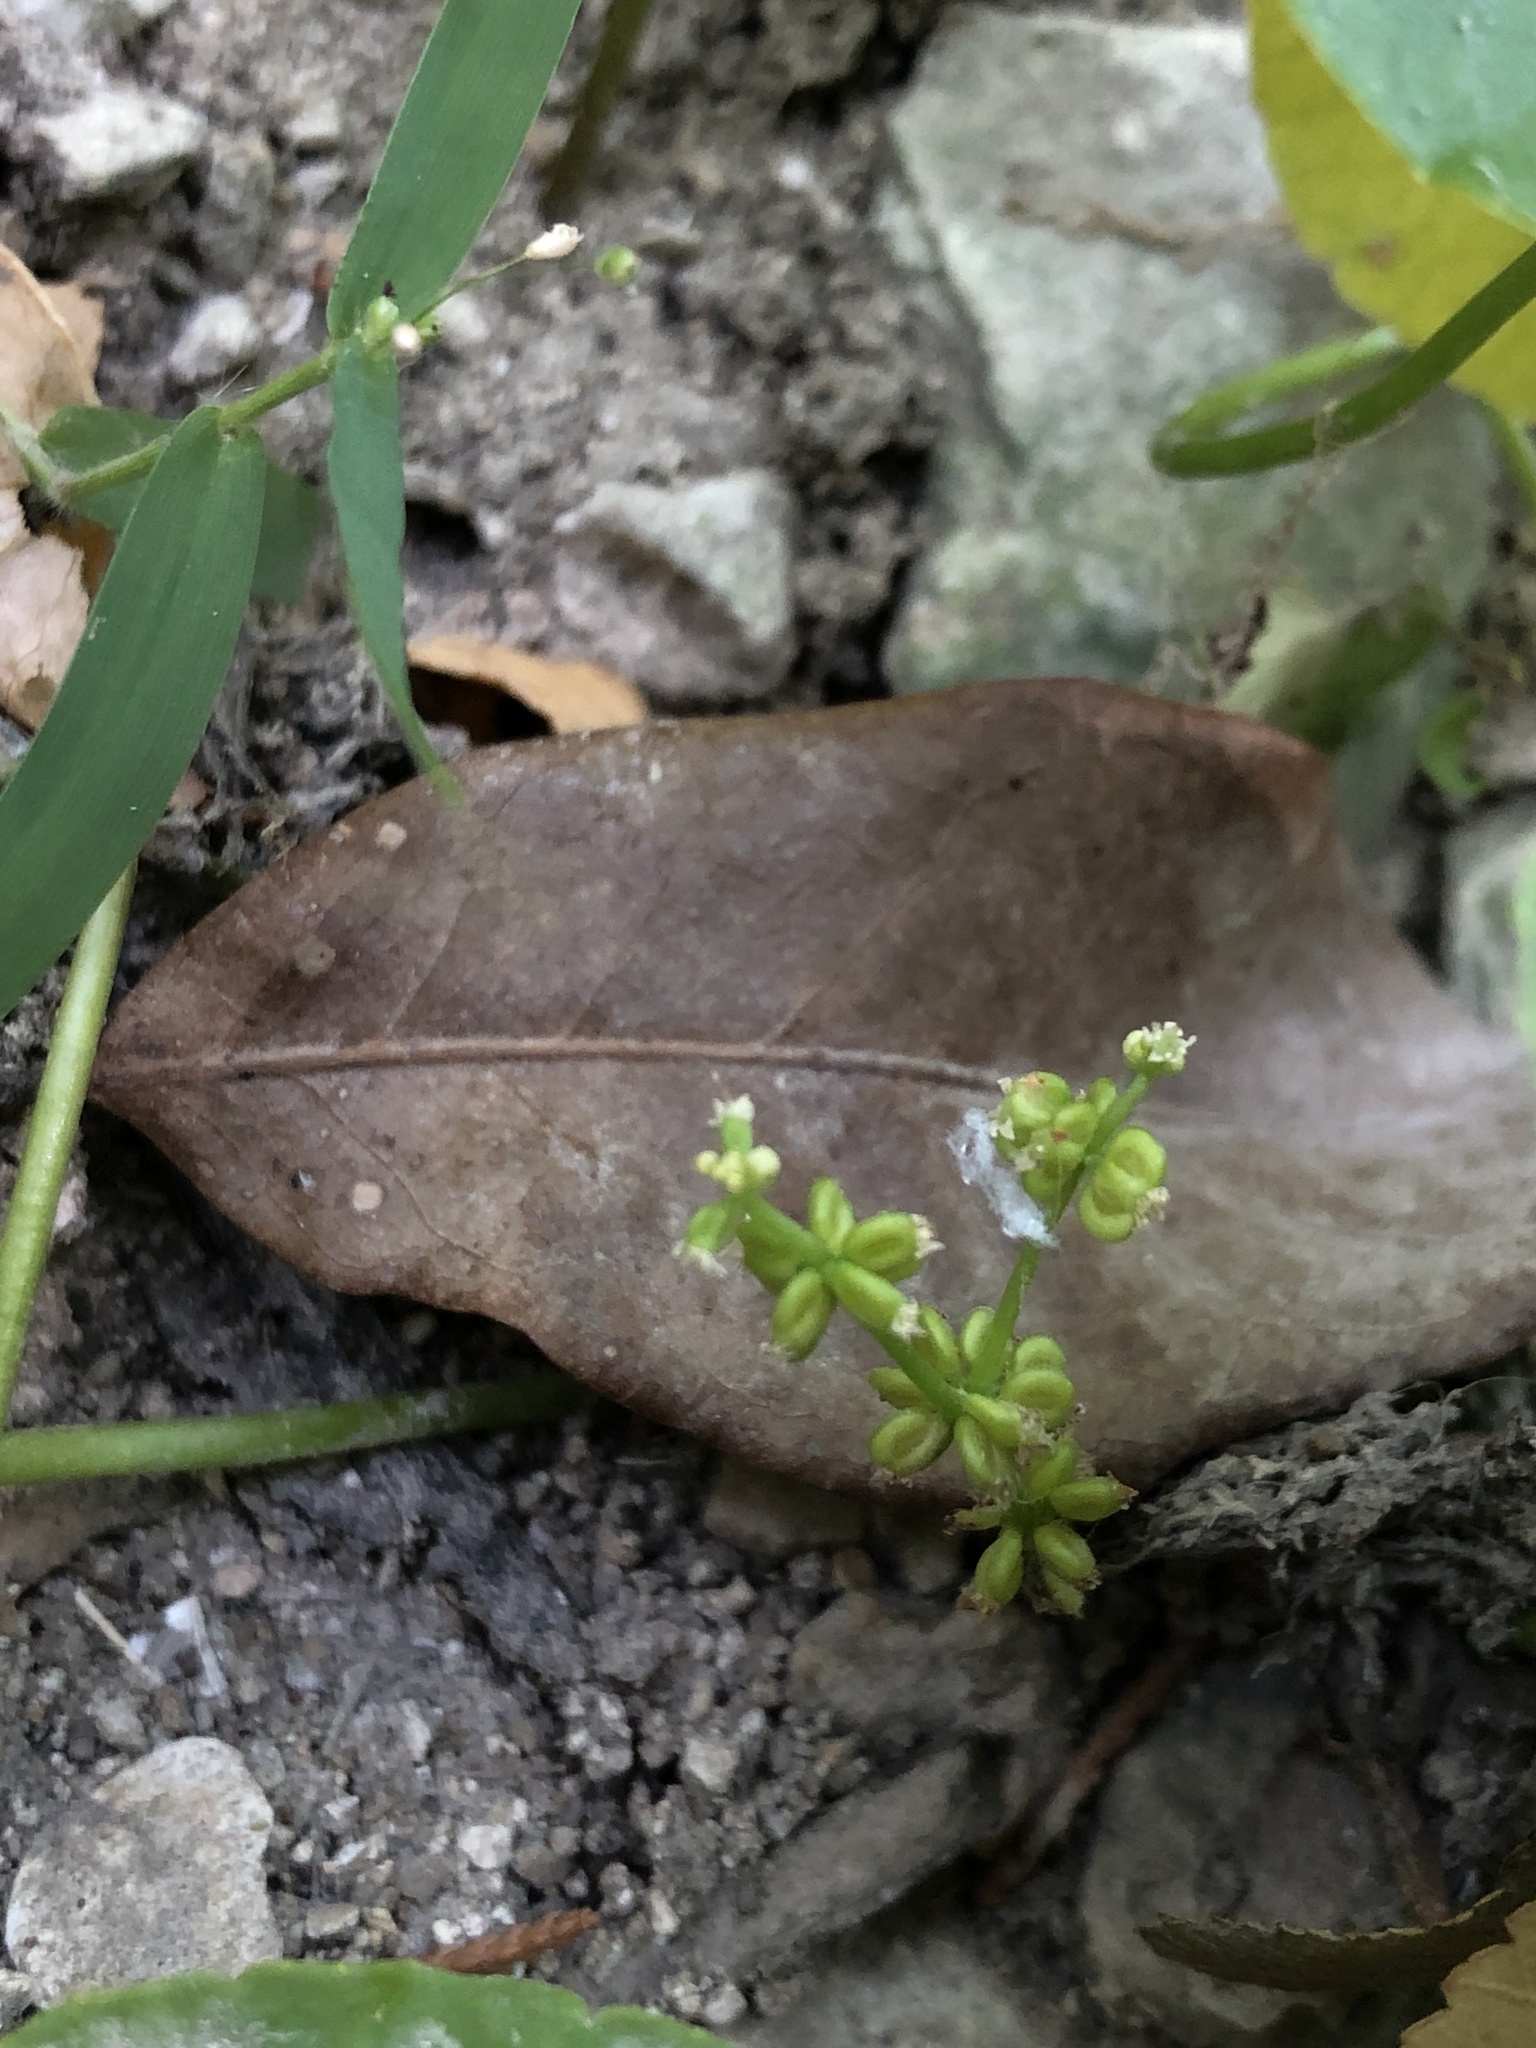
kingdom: Plantae
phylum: Tracheophyta
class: Magnoliopsida
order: Apiales
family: Araliaceae
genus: Hydrocotyle
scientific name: Hydrocotyle verticillata
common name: Whorled marshpennywort
